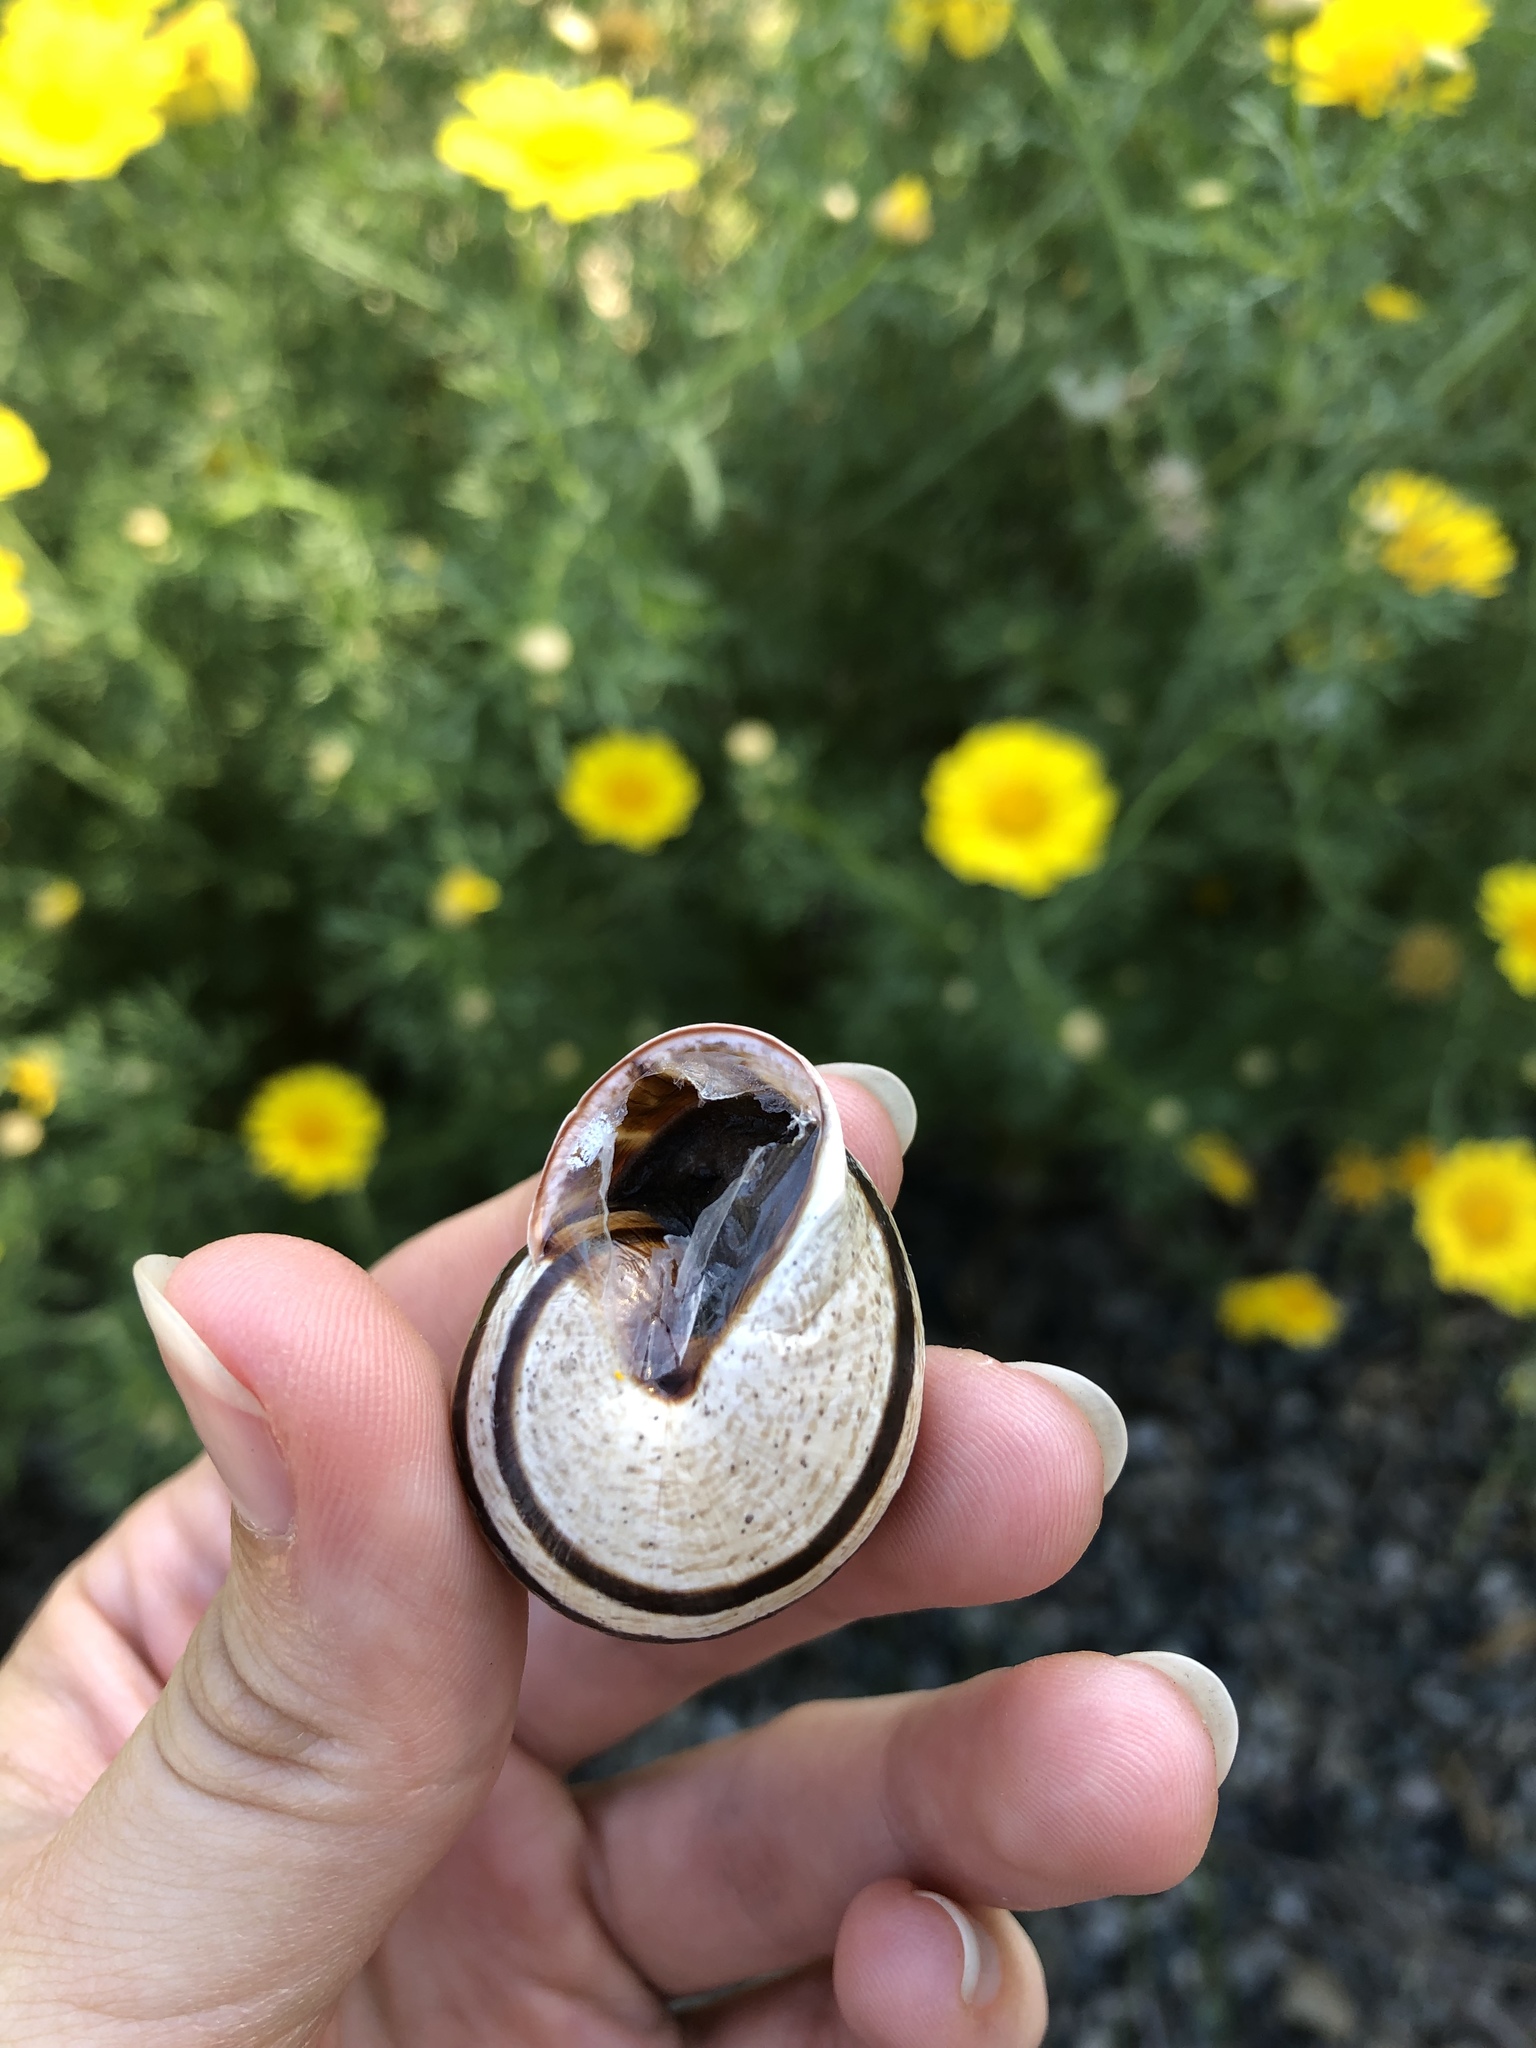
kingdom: Animalia
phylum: Mollusca
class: Gastropoda
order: Stylommatophora
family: Helicidae
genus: Otala
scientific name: Otala lactea
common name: Milk snail
